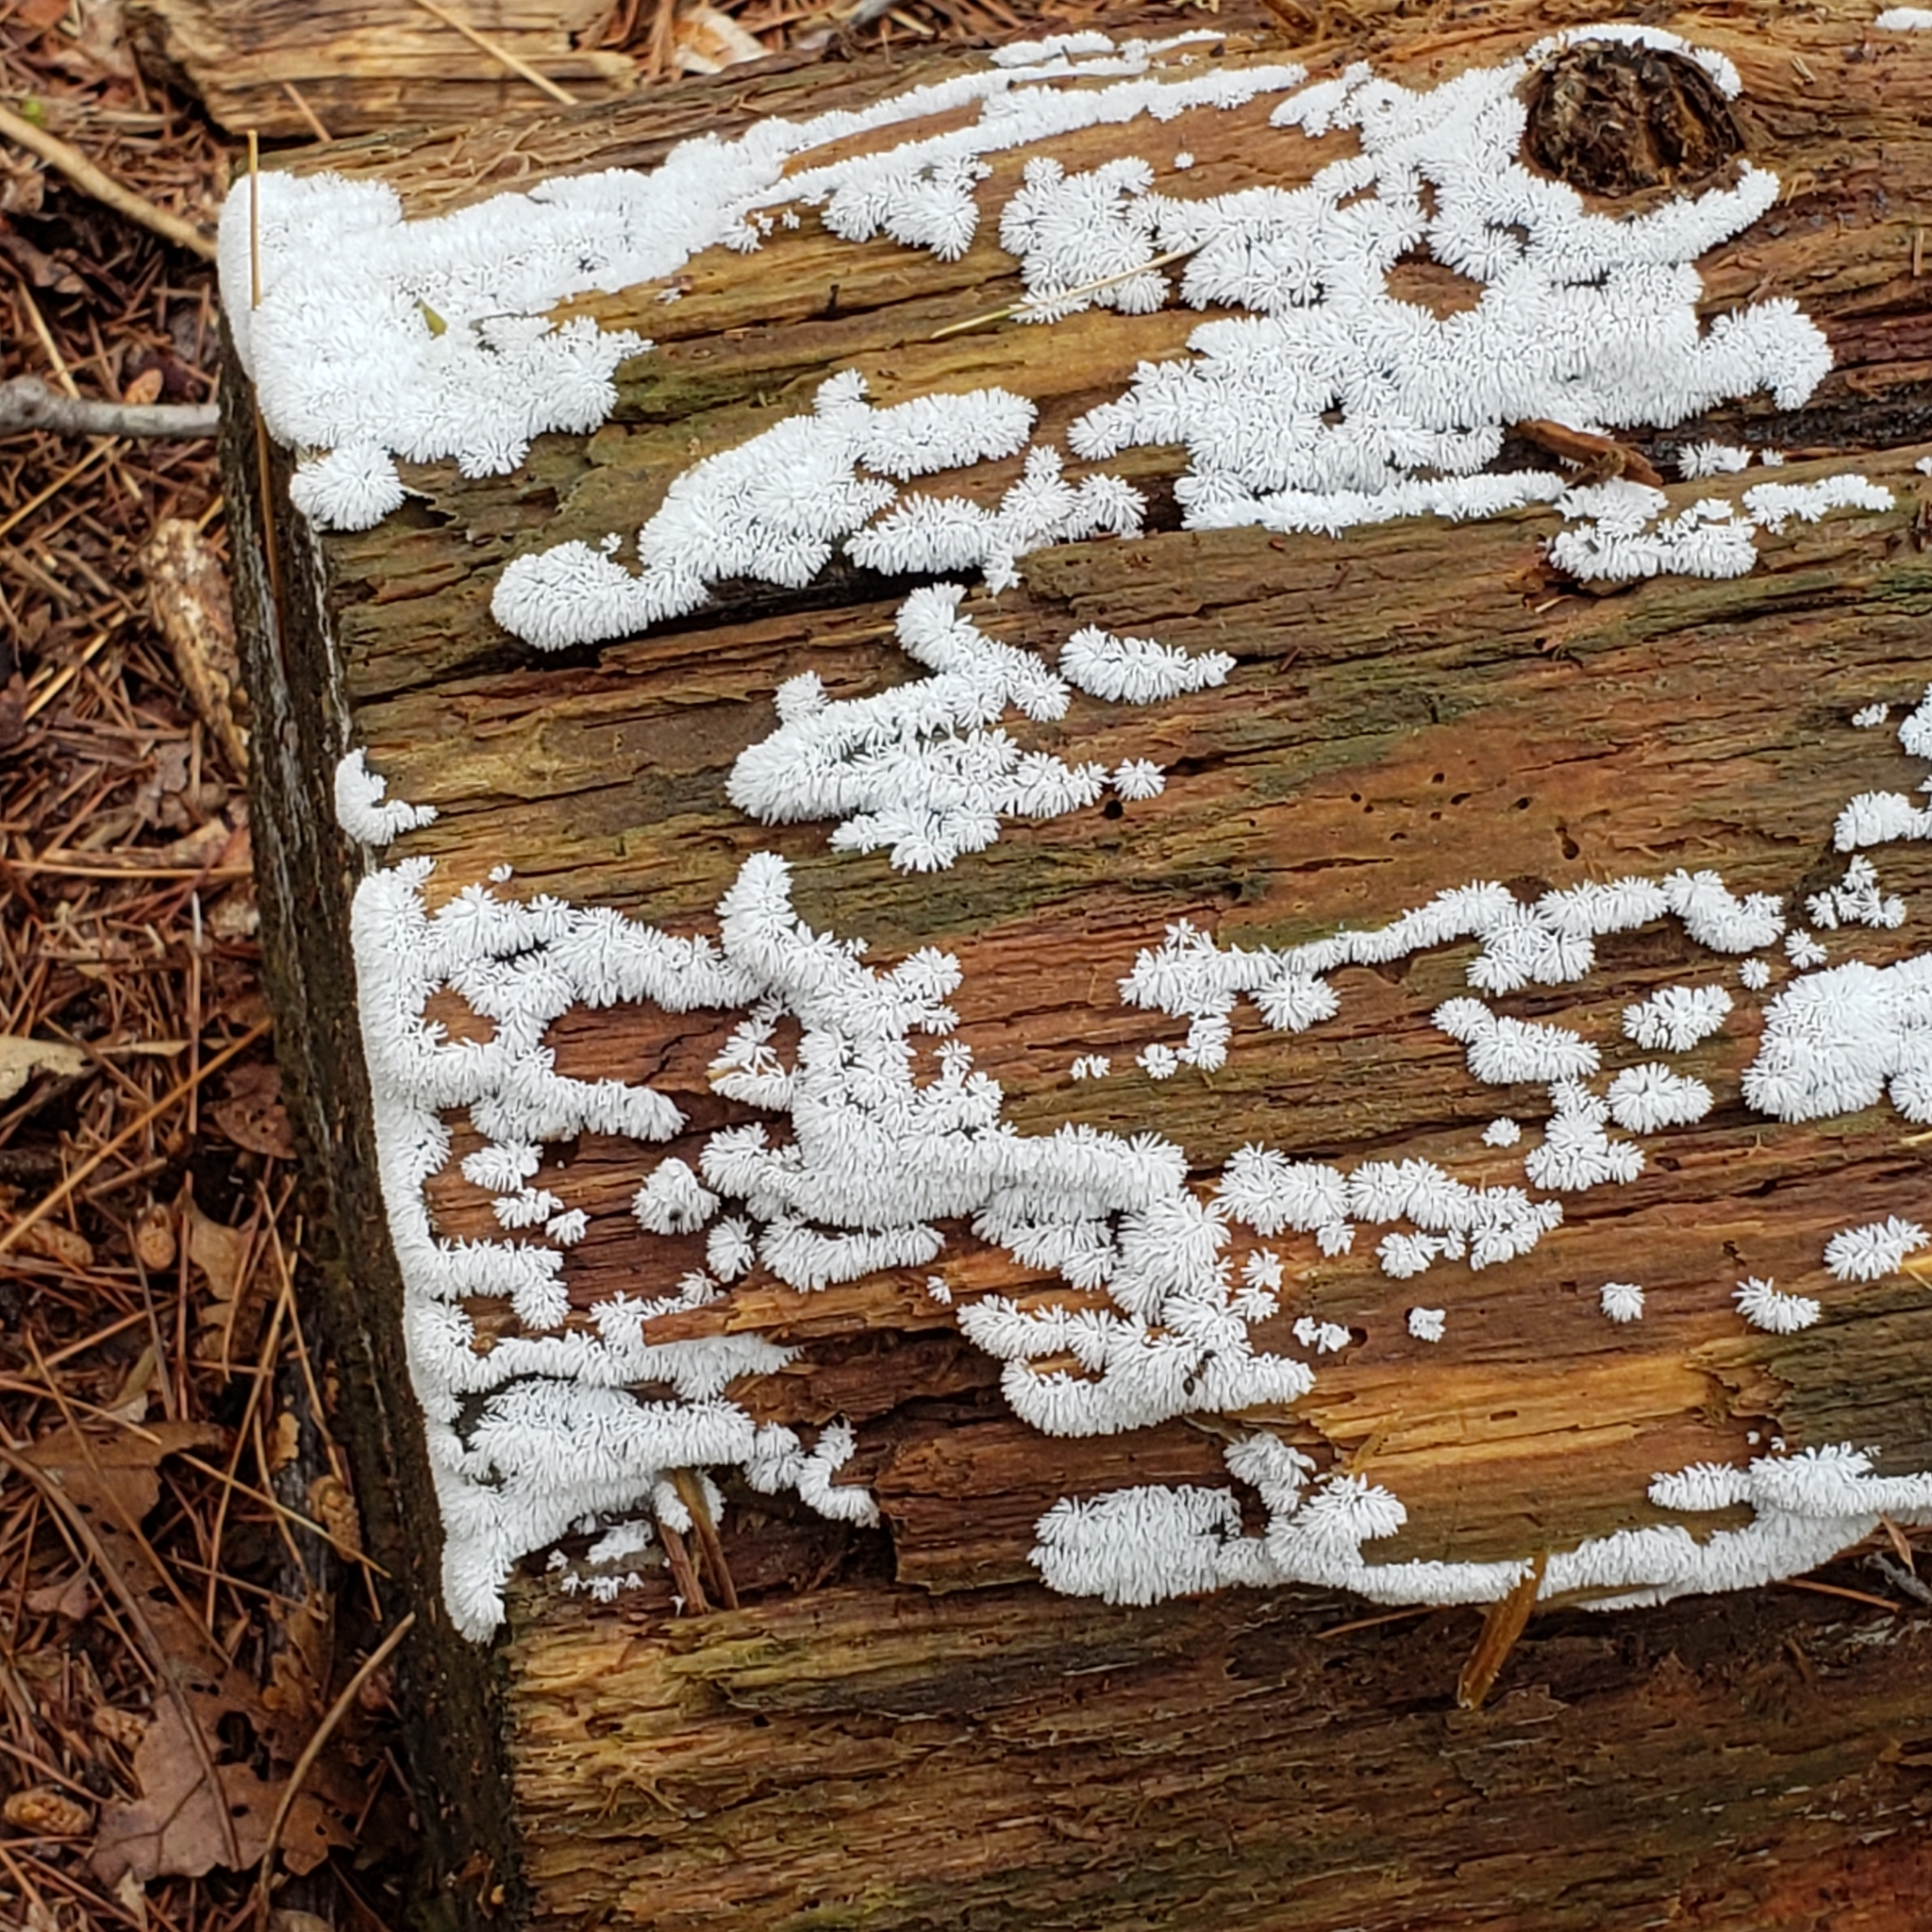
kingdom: Protozoa
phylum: Mycetozoa
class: Protosteliomycetes
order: Ceratiomyxales
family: Ceratiomyxaceae
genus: Ceratiomyxa
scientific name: Ceratiomyxa fruticulosa
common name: Honeycomb coral slime mold
